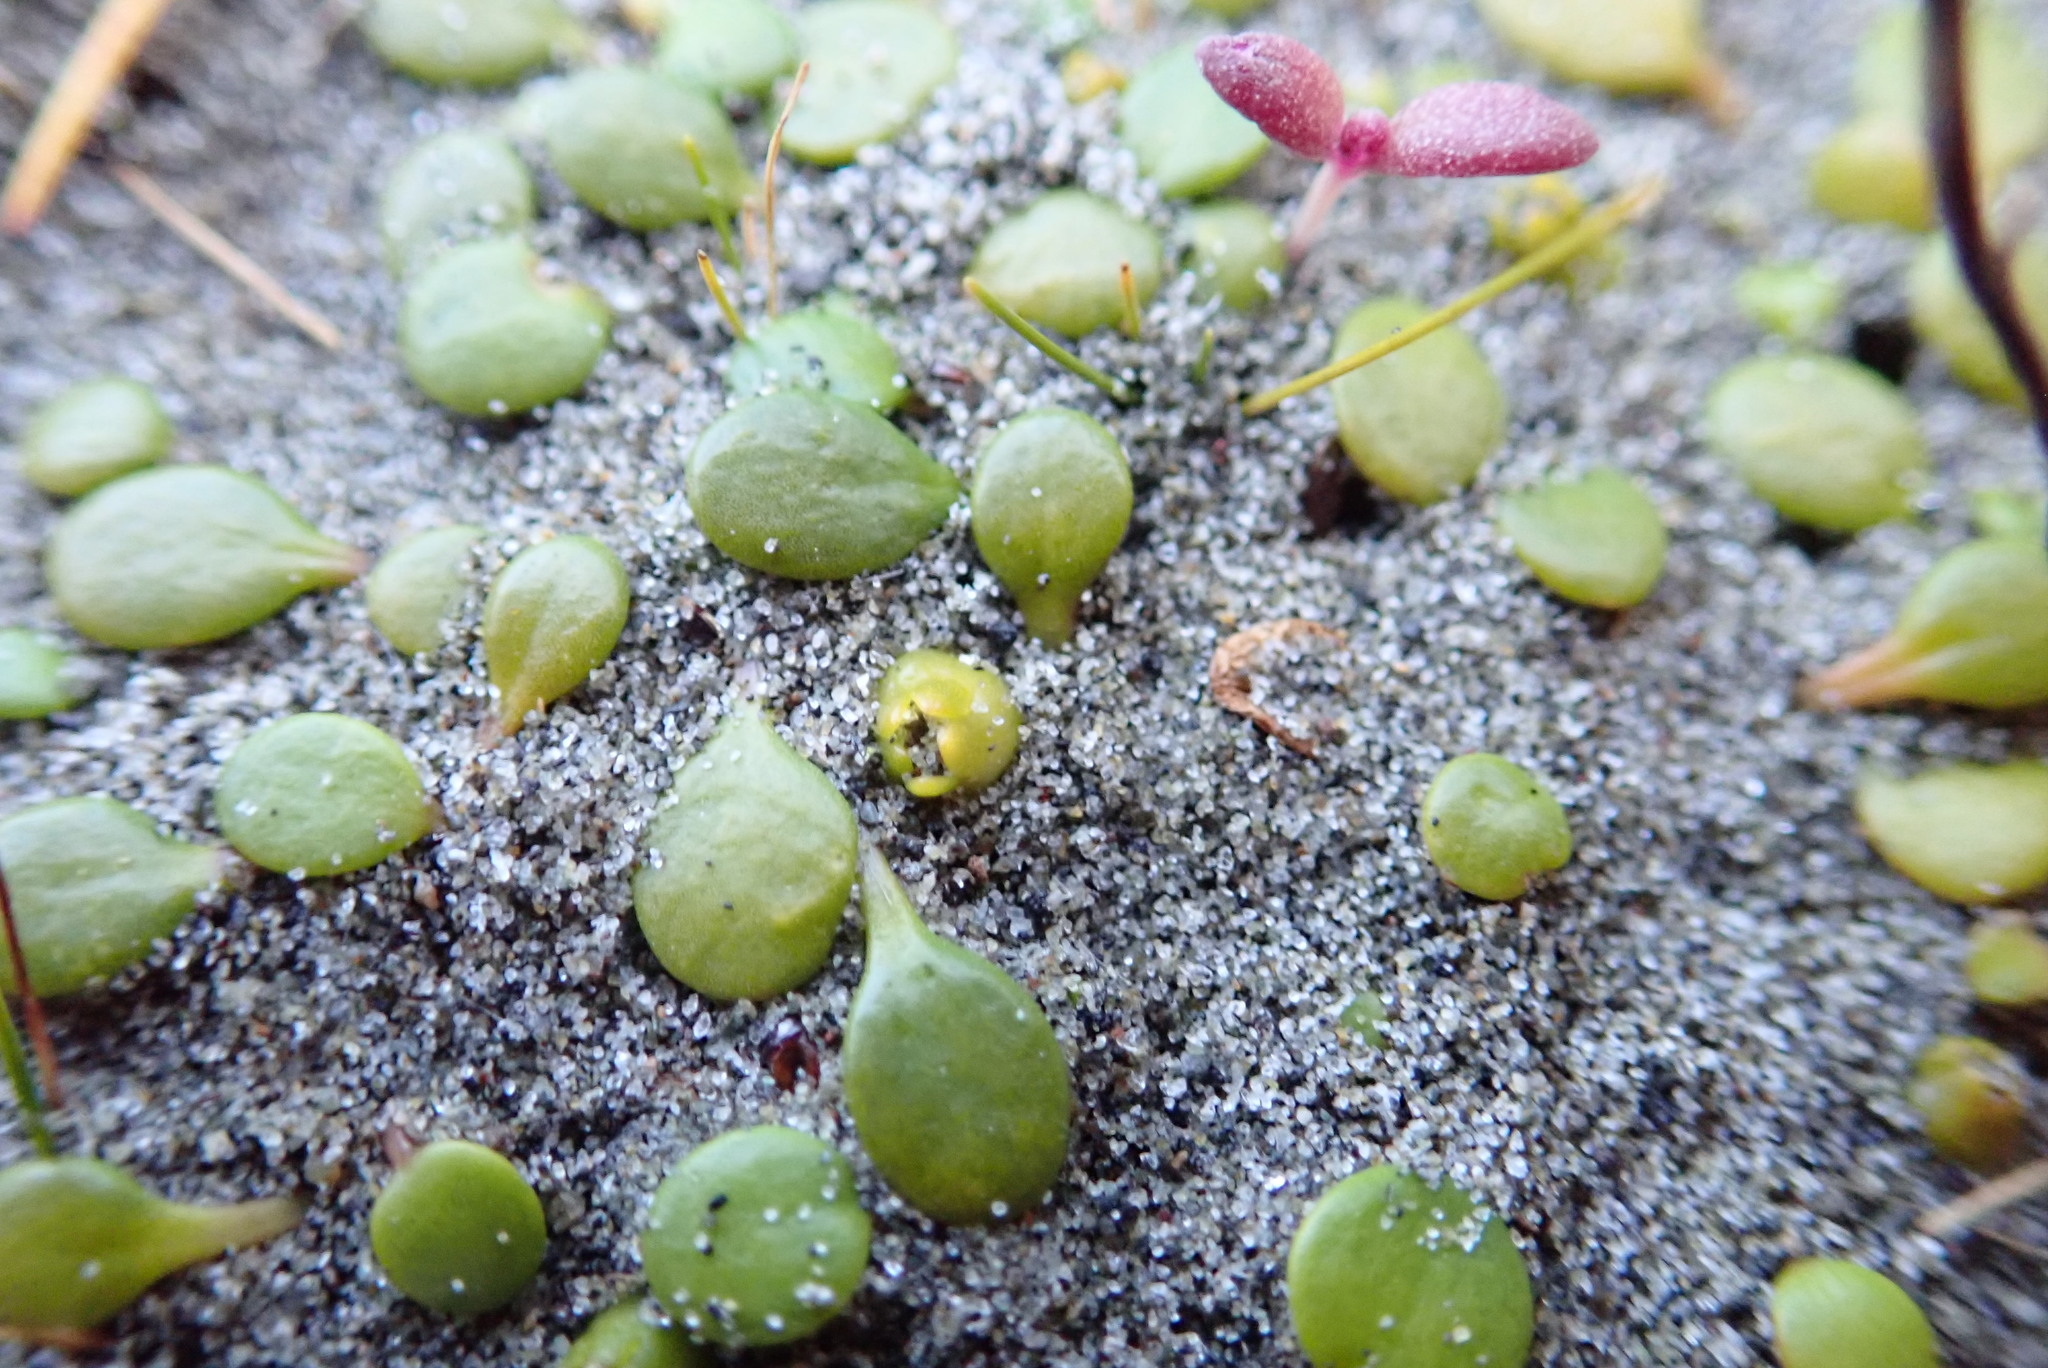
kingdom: Plantae
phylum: Tracheophyta
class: Magnoliopsida
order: Asterales
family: Goodeniaceae
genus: Goodenia
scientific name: Goodenia heenanii
